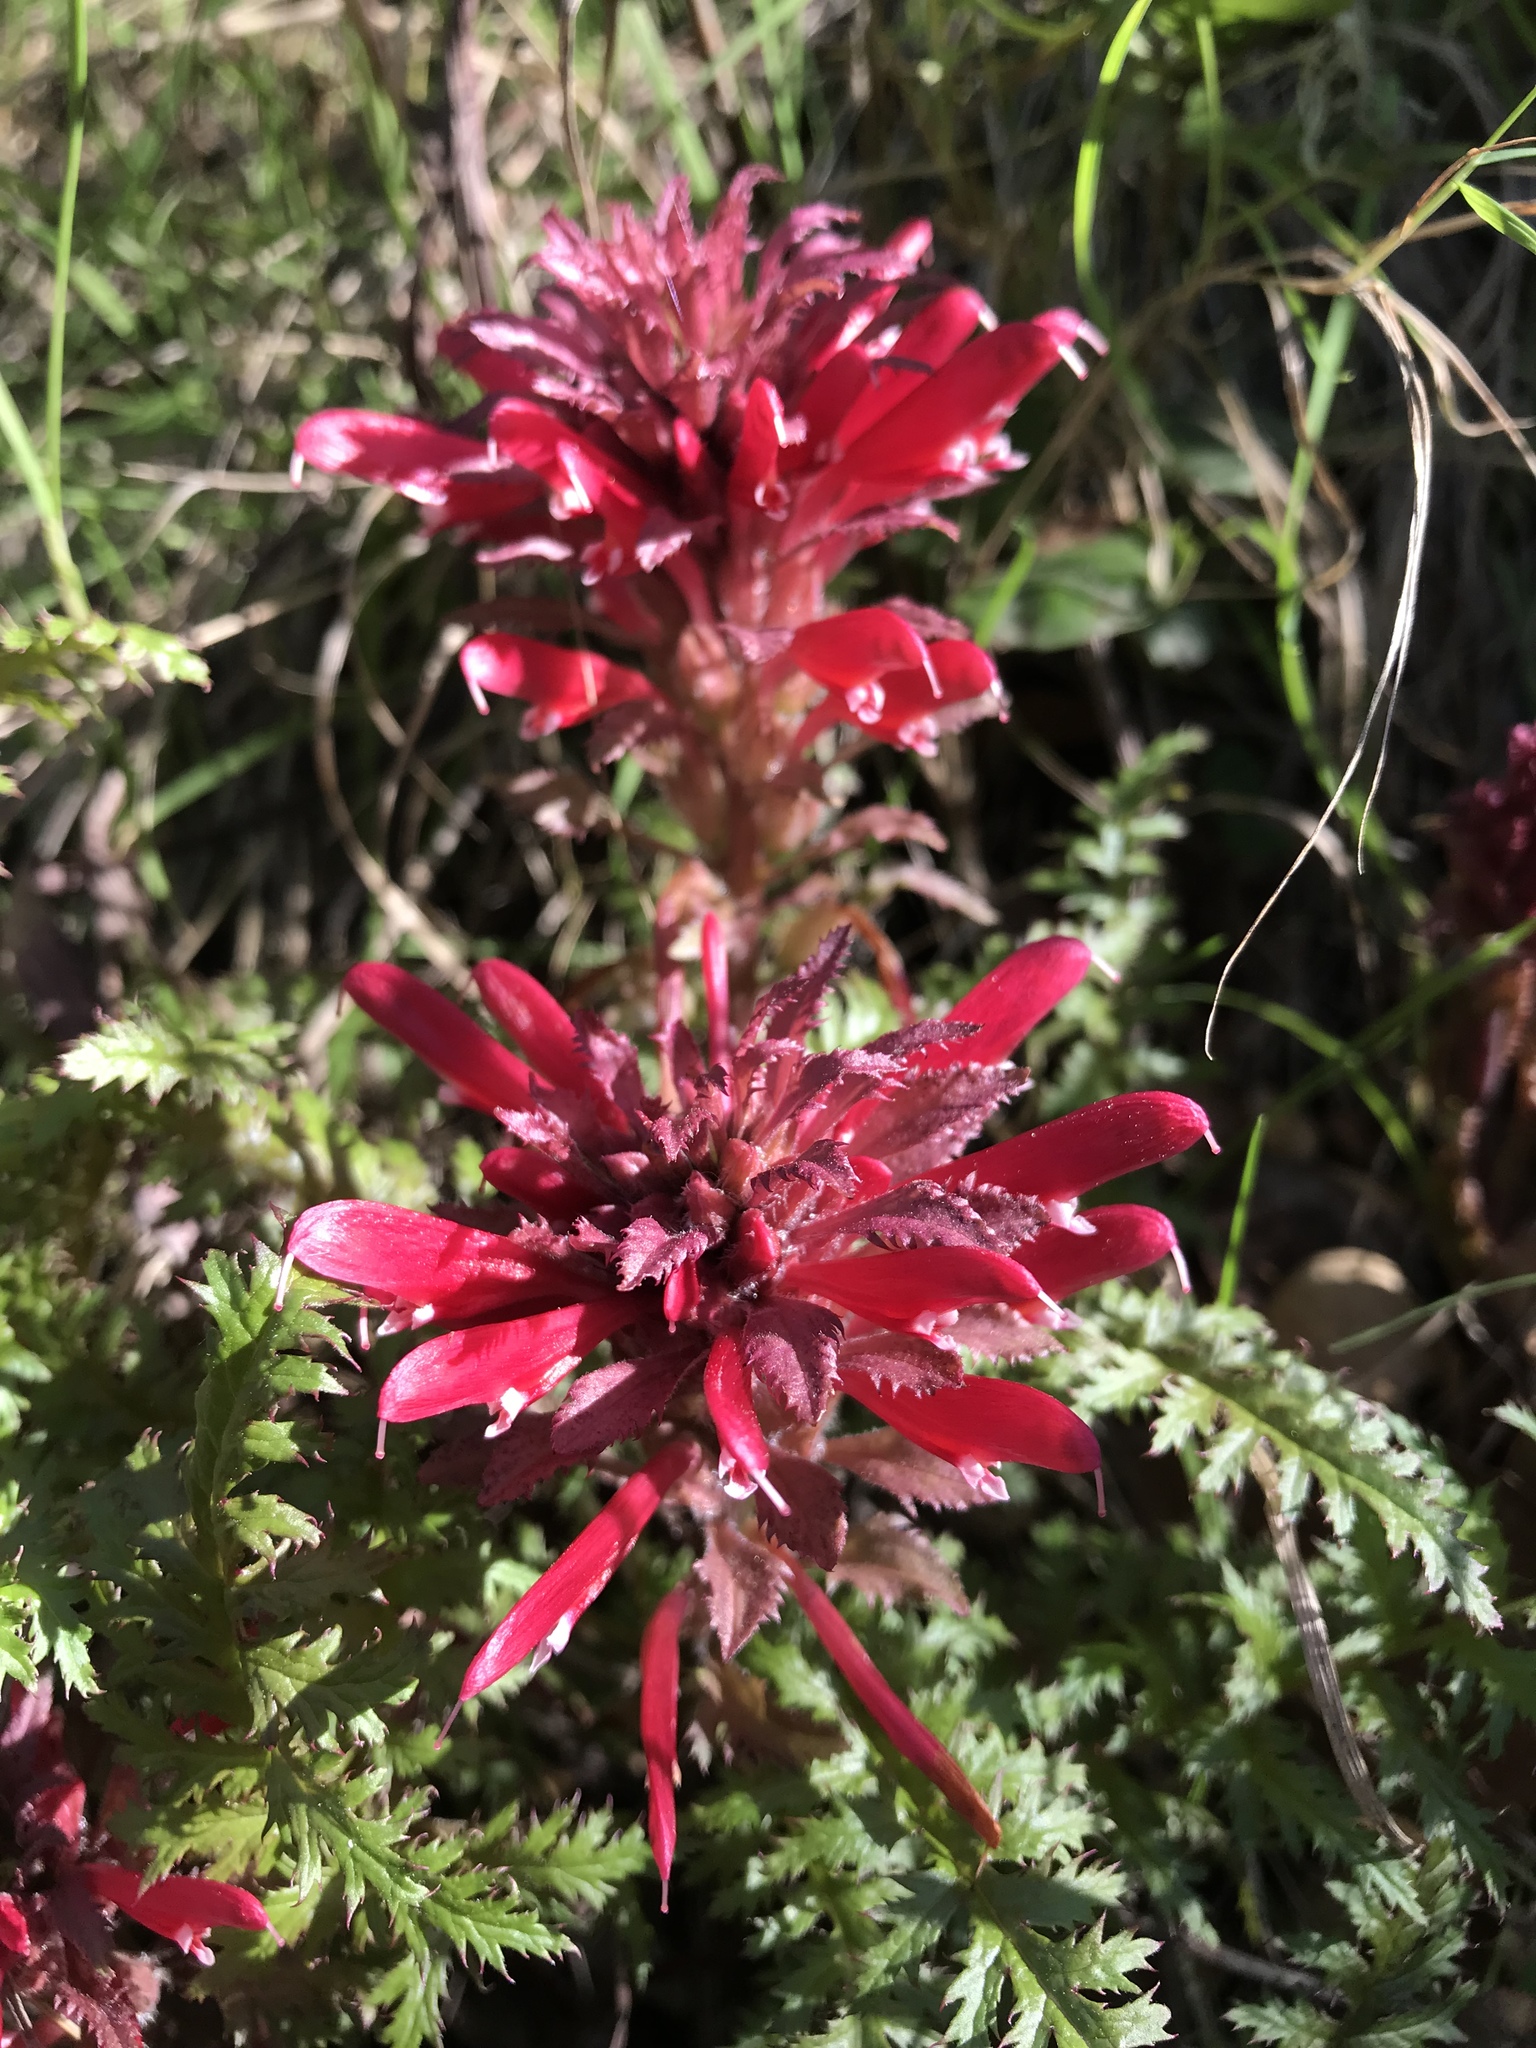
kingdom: Plantae
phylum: Tracheophyta
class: Magnoliopsida
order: Lamiales
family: Orobanchaceae
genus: Pedicularis
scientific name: Pedicularis densiflora
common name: Indian warrior
